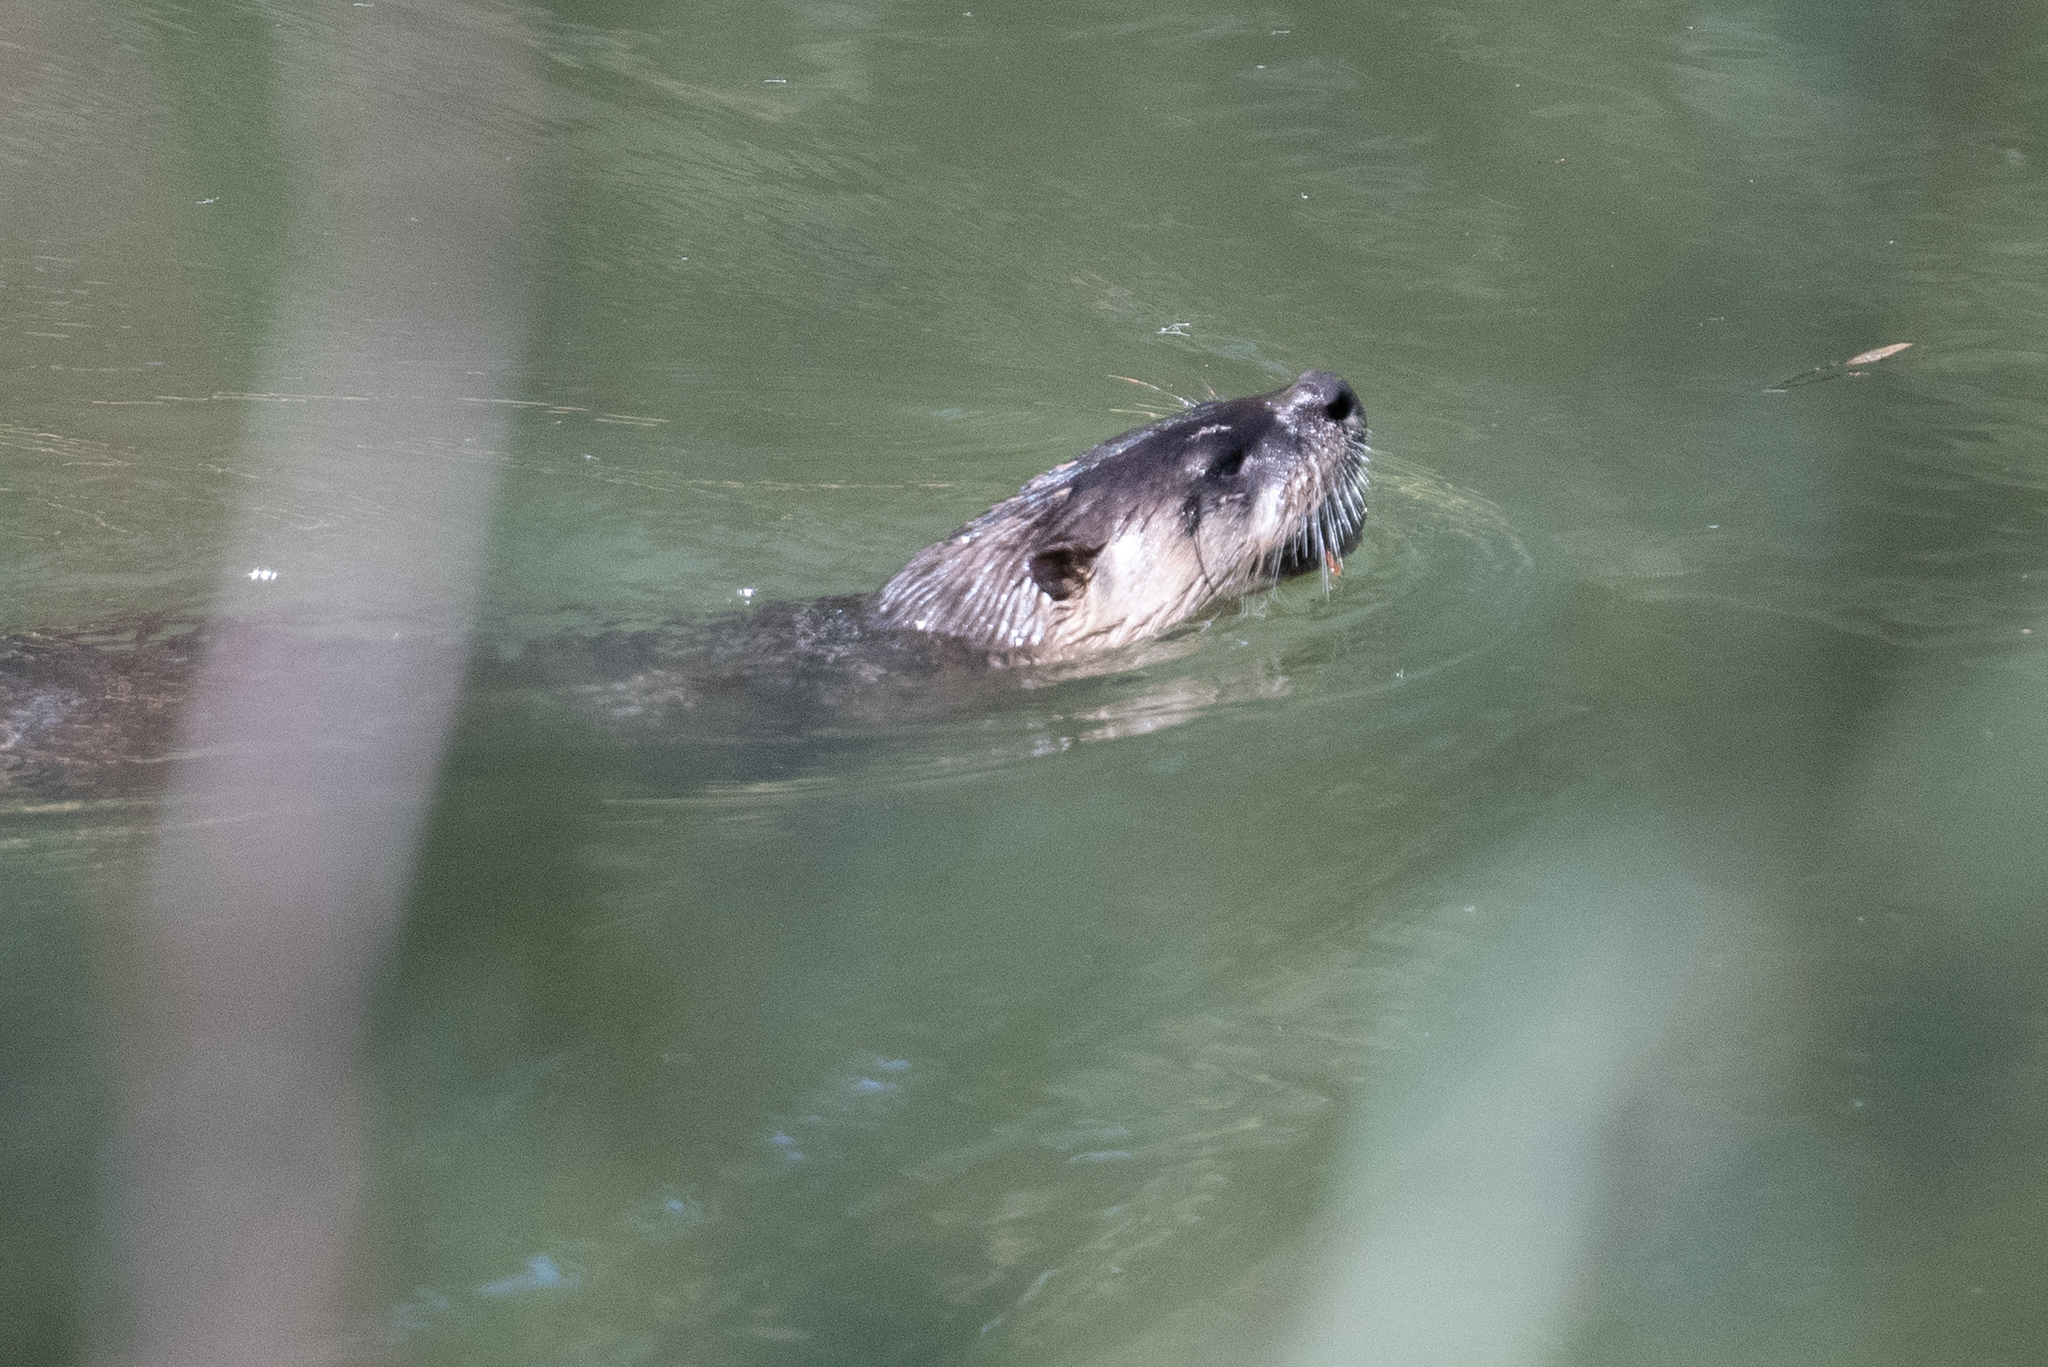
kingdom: Animalia
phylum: Chordata
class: Mammalia
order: Carnivora
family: Mustelidae
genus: Lontra
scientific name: Lontra canadensis
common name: North american river otter
